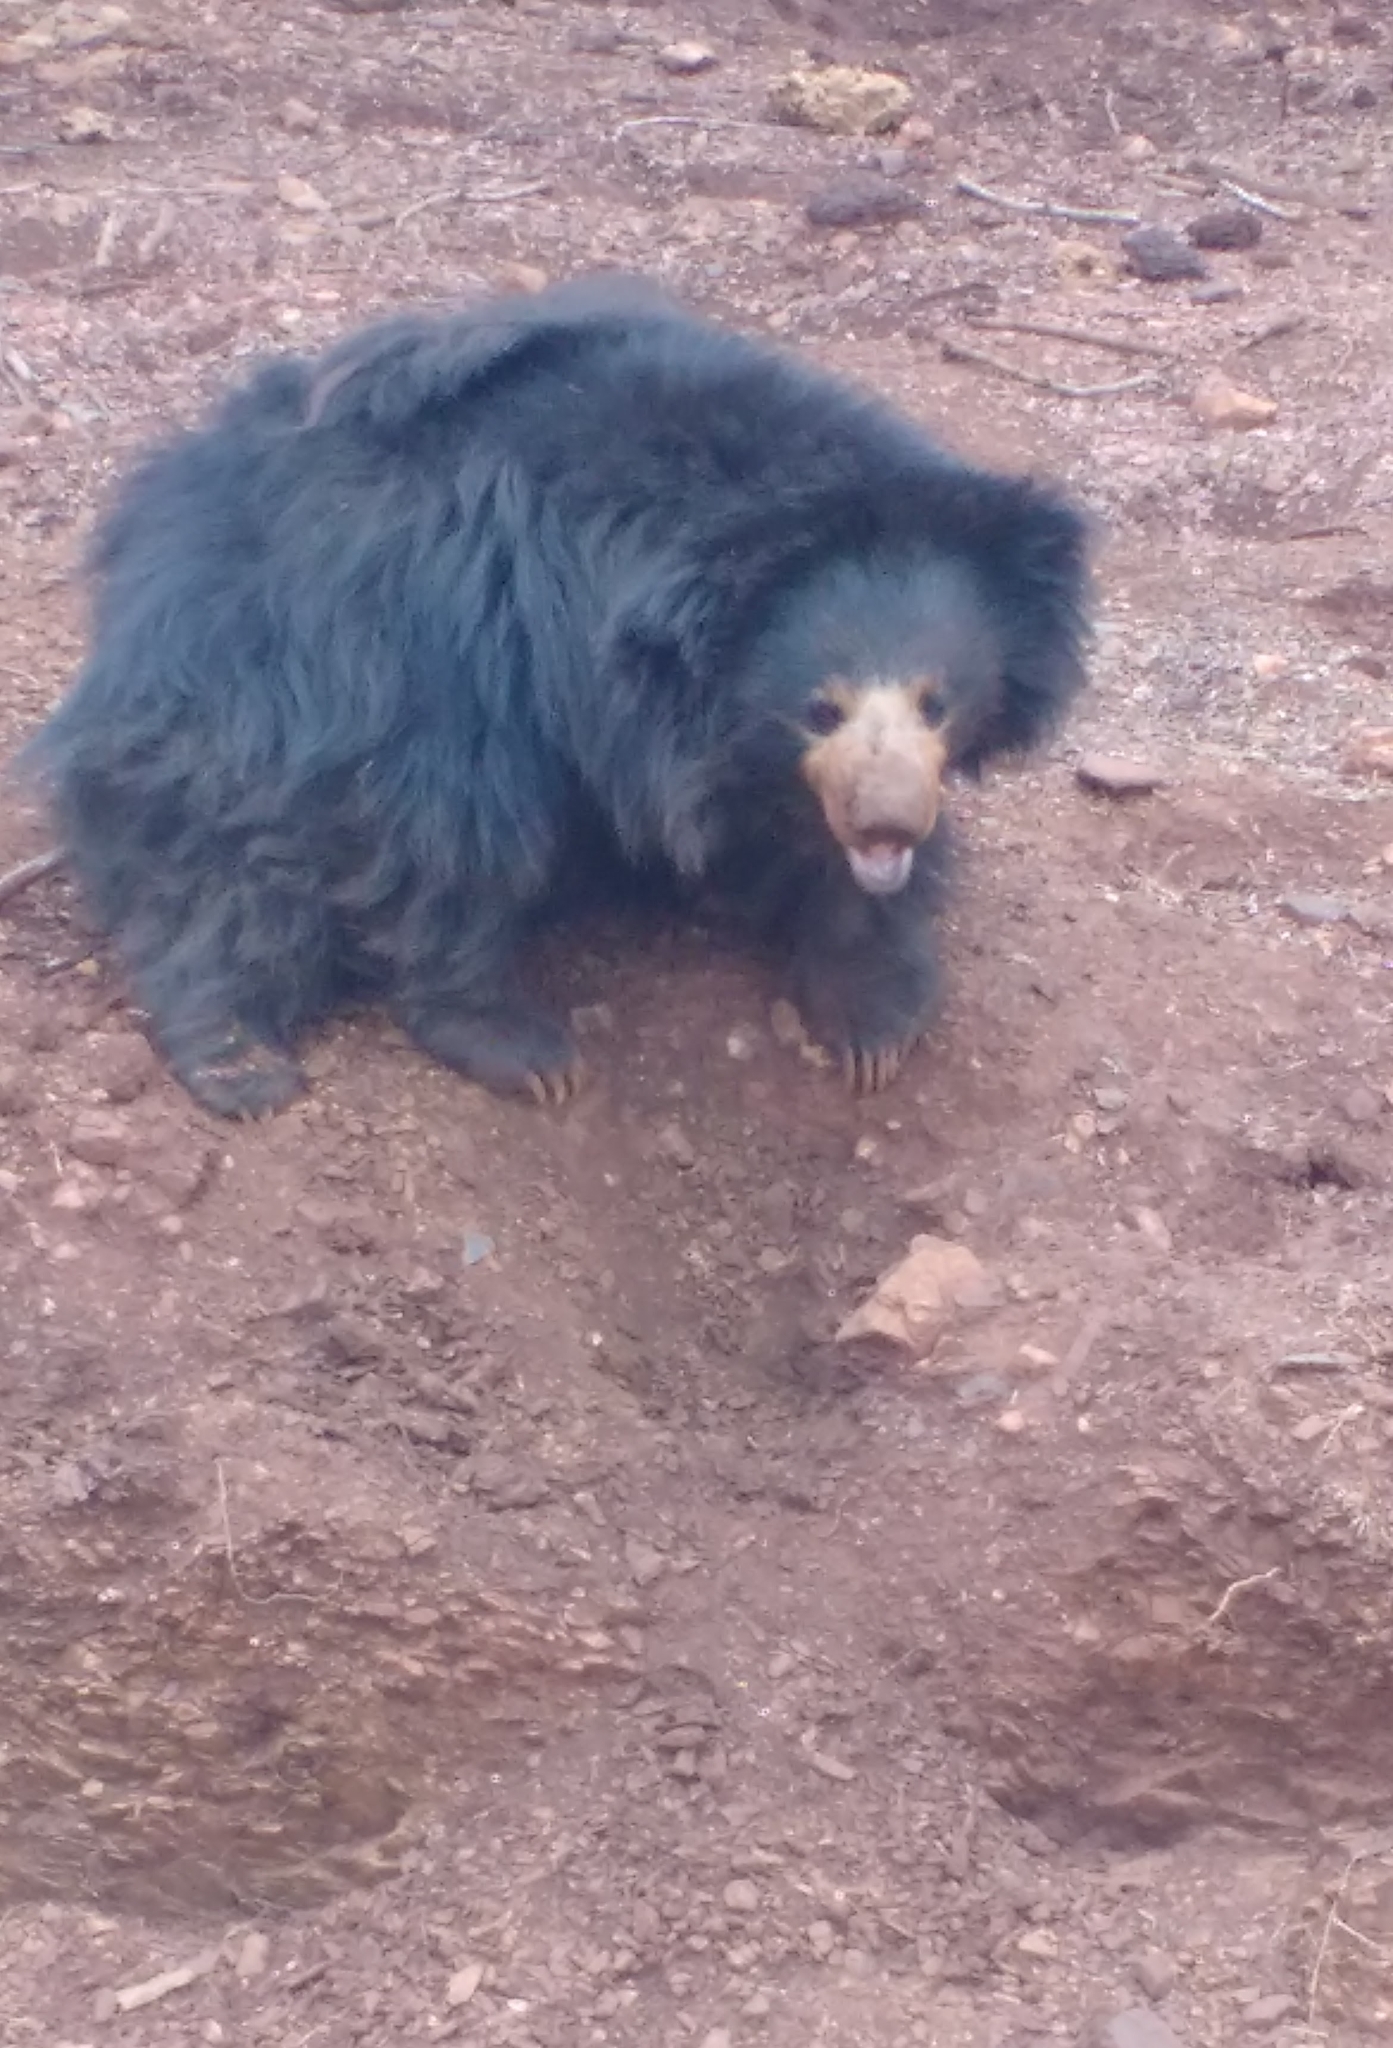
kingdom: Animalia
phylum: Chordata
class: Mammalia
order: Carnivora
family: Ursidae
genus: Melursus
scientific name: Melursus ursinus
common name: Sloth bear
